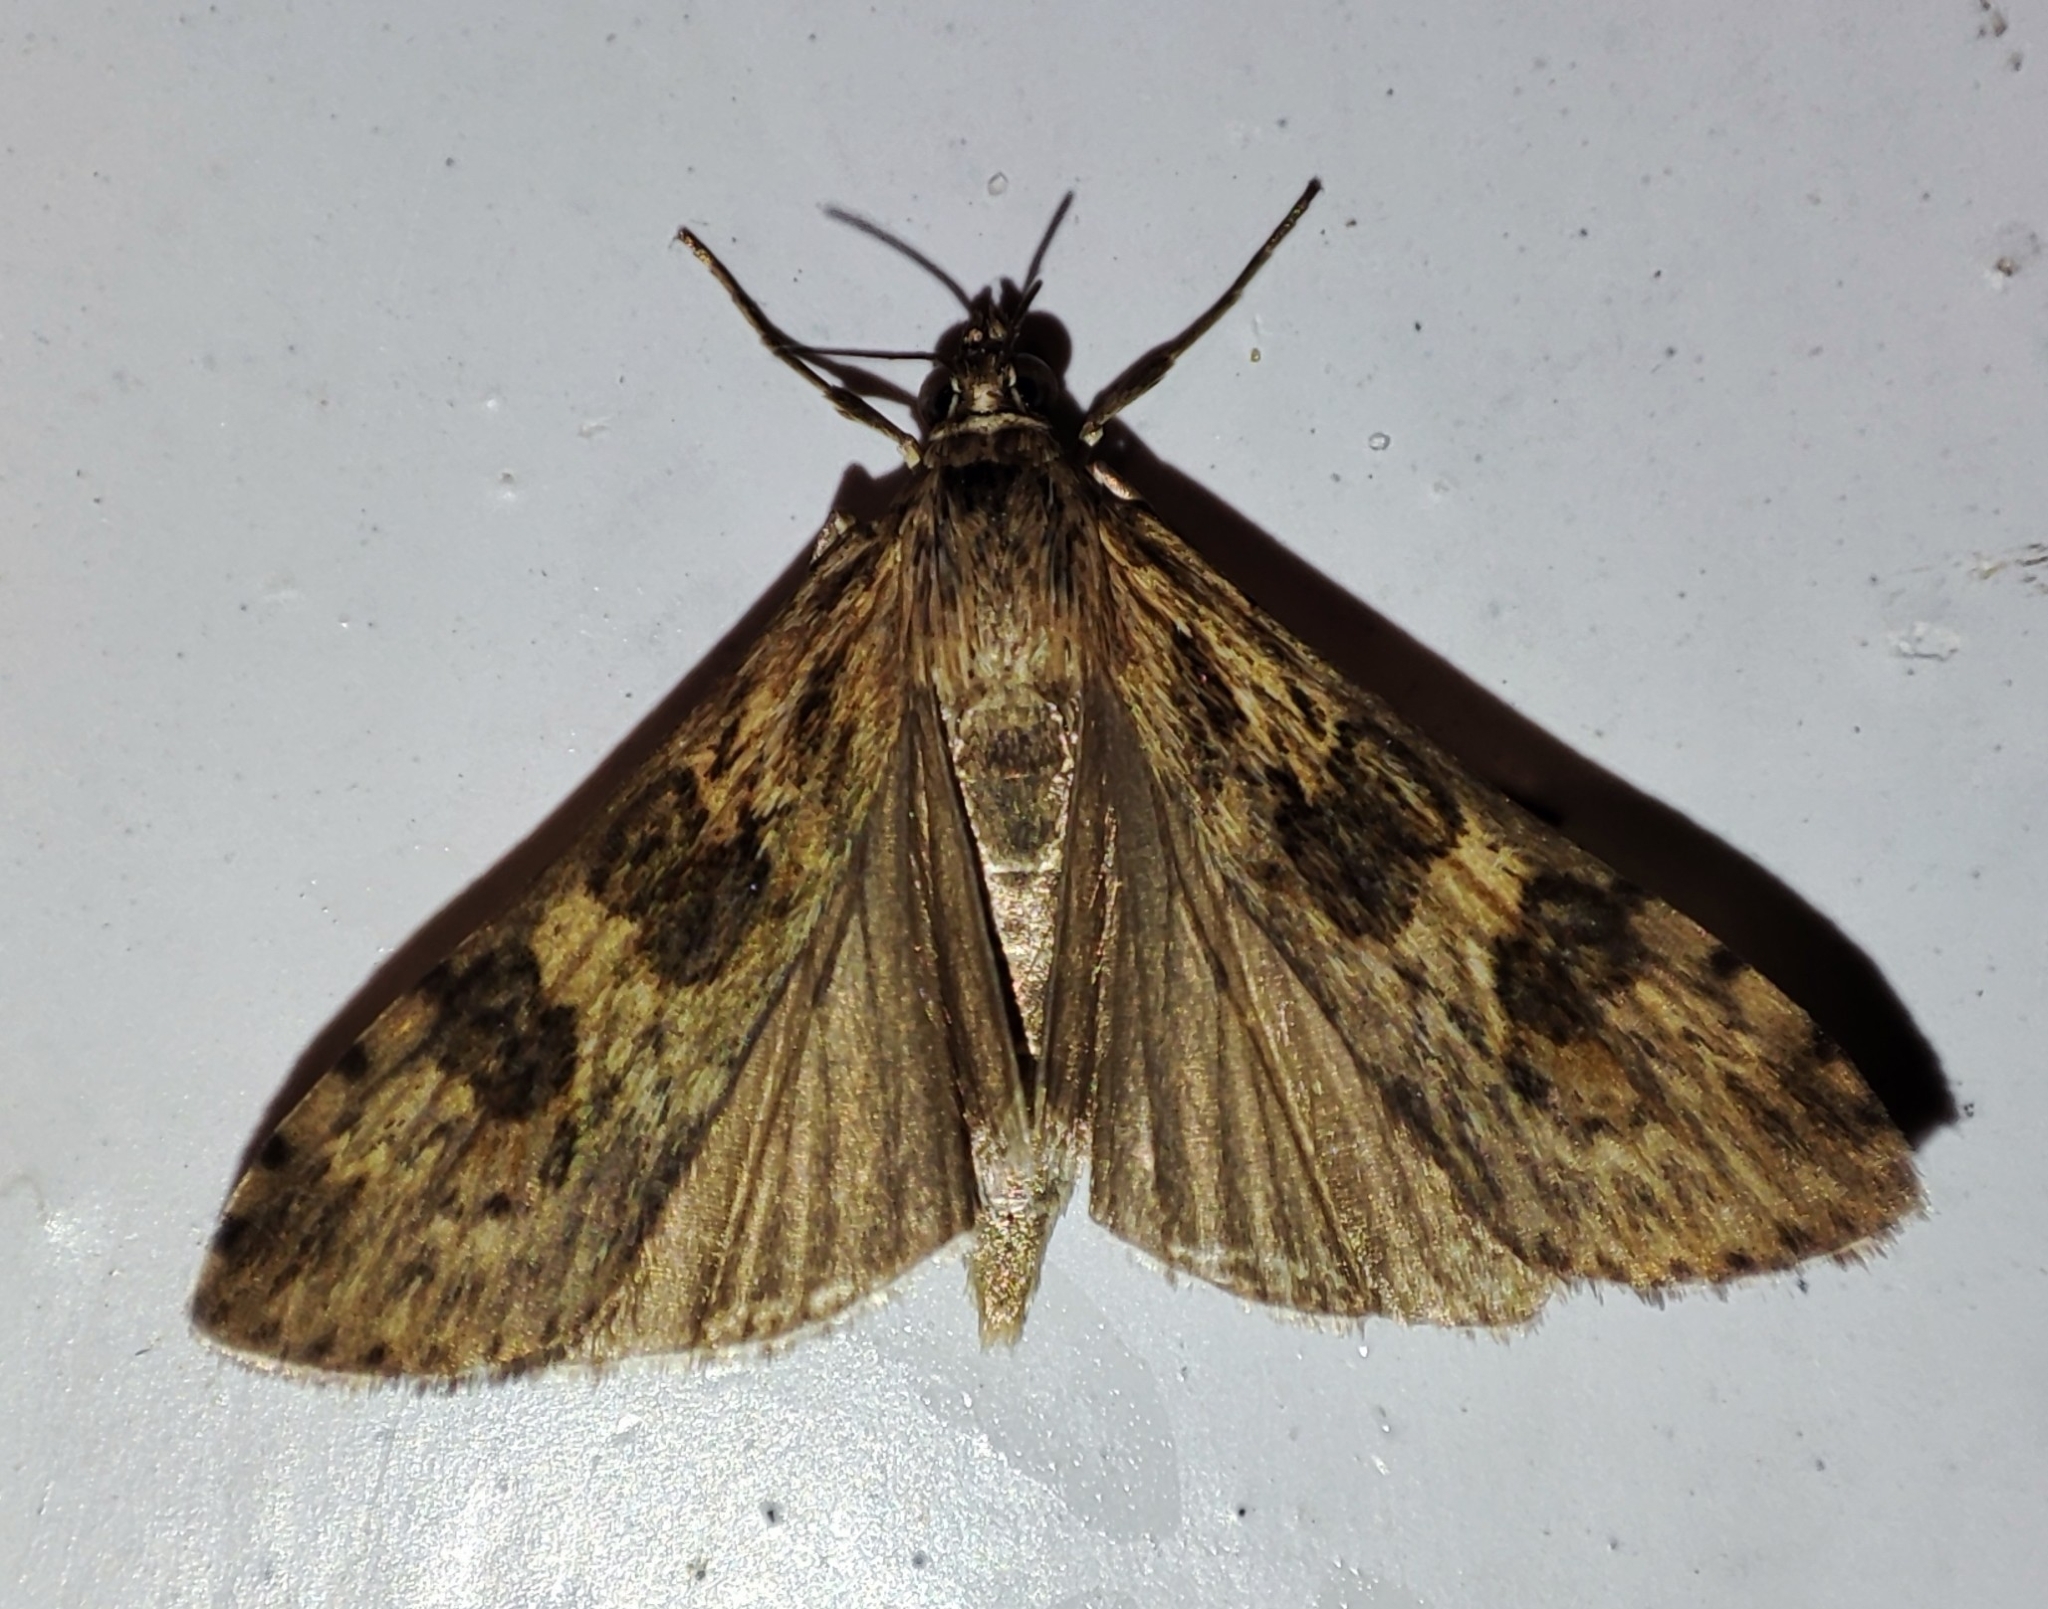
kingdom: Animalia
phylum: Arthropoda
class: Insecta
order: Lepidoptera
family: Crambidae
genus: Nomophila
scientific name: Nomophila noctuella
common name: Rush veneer
